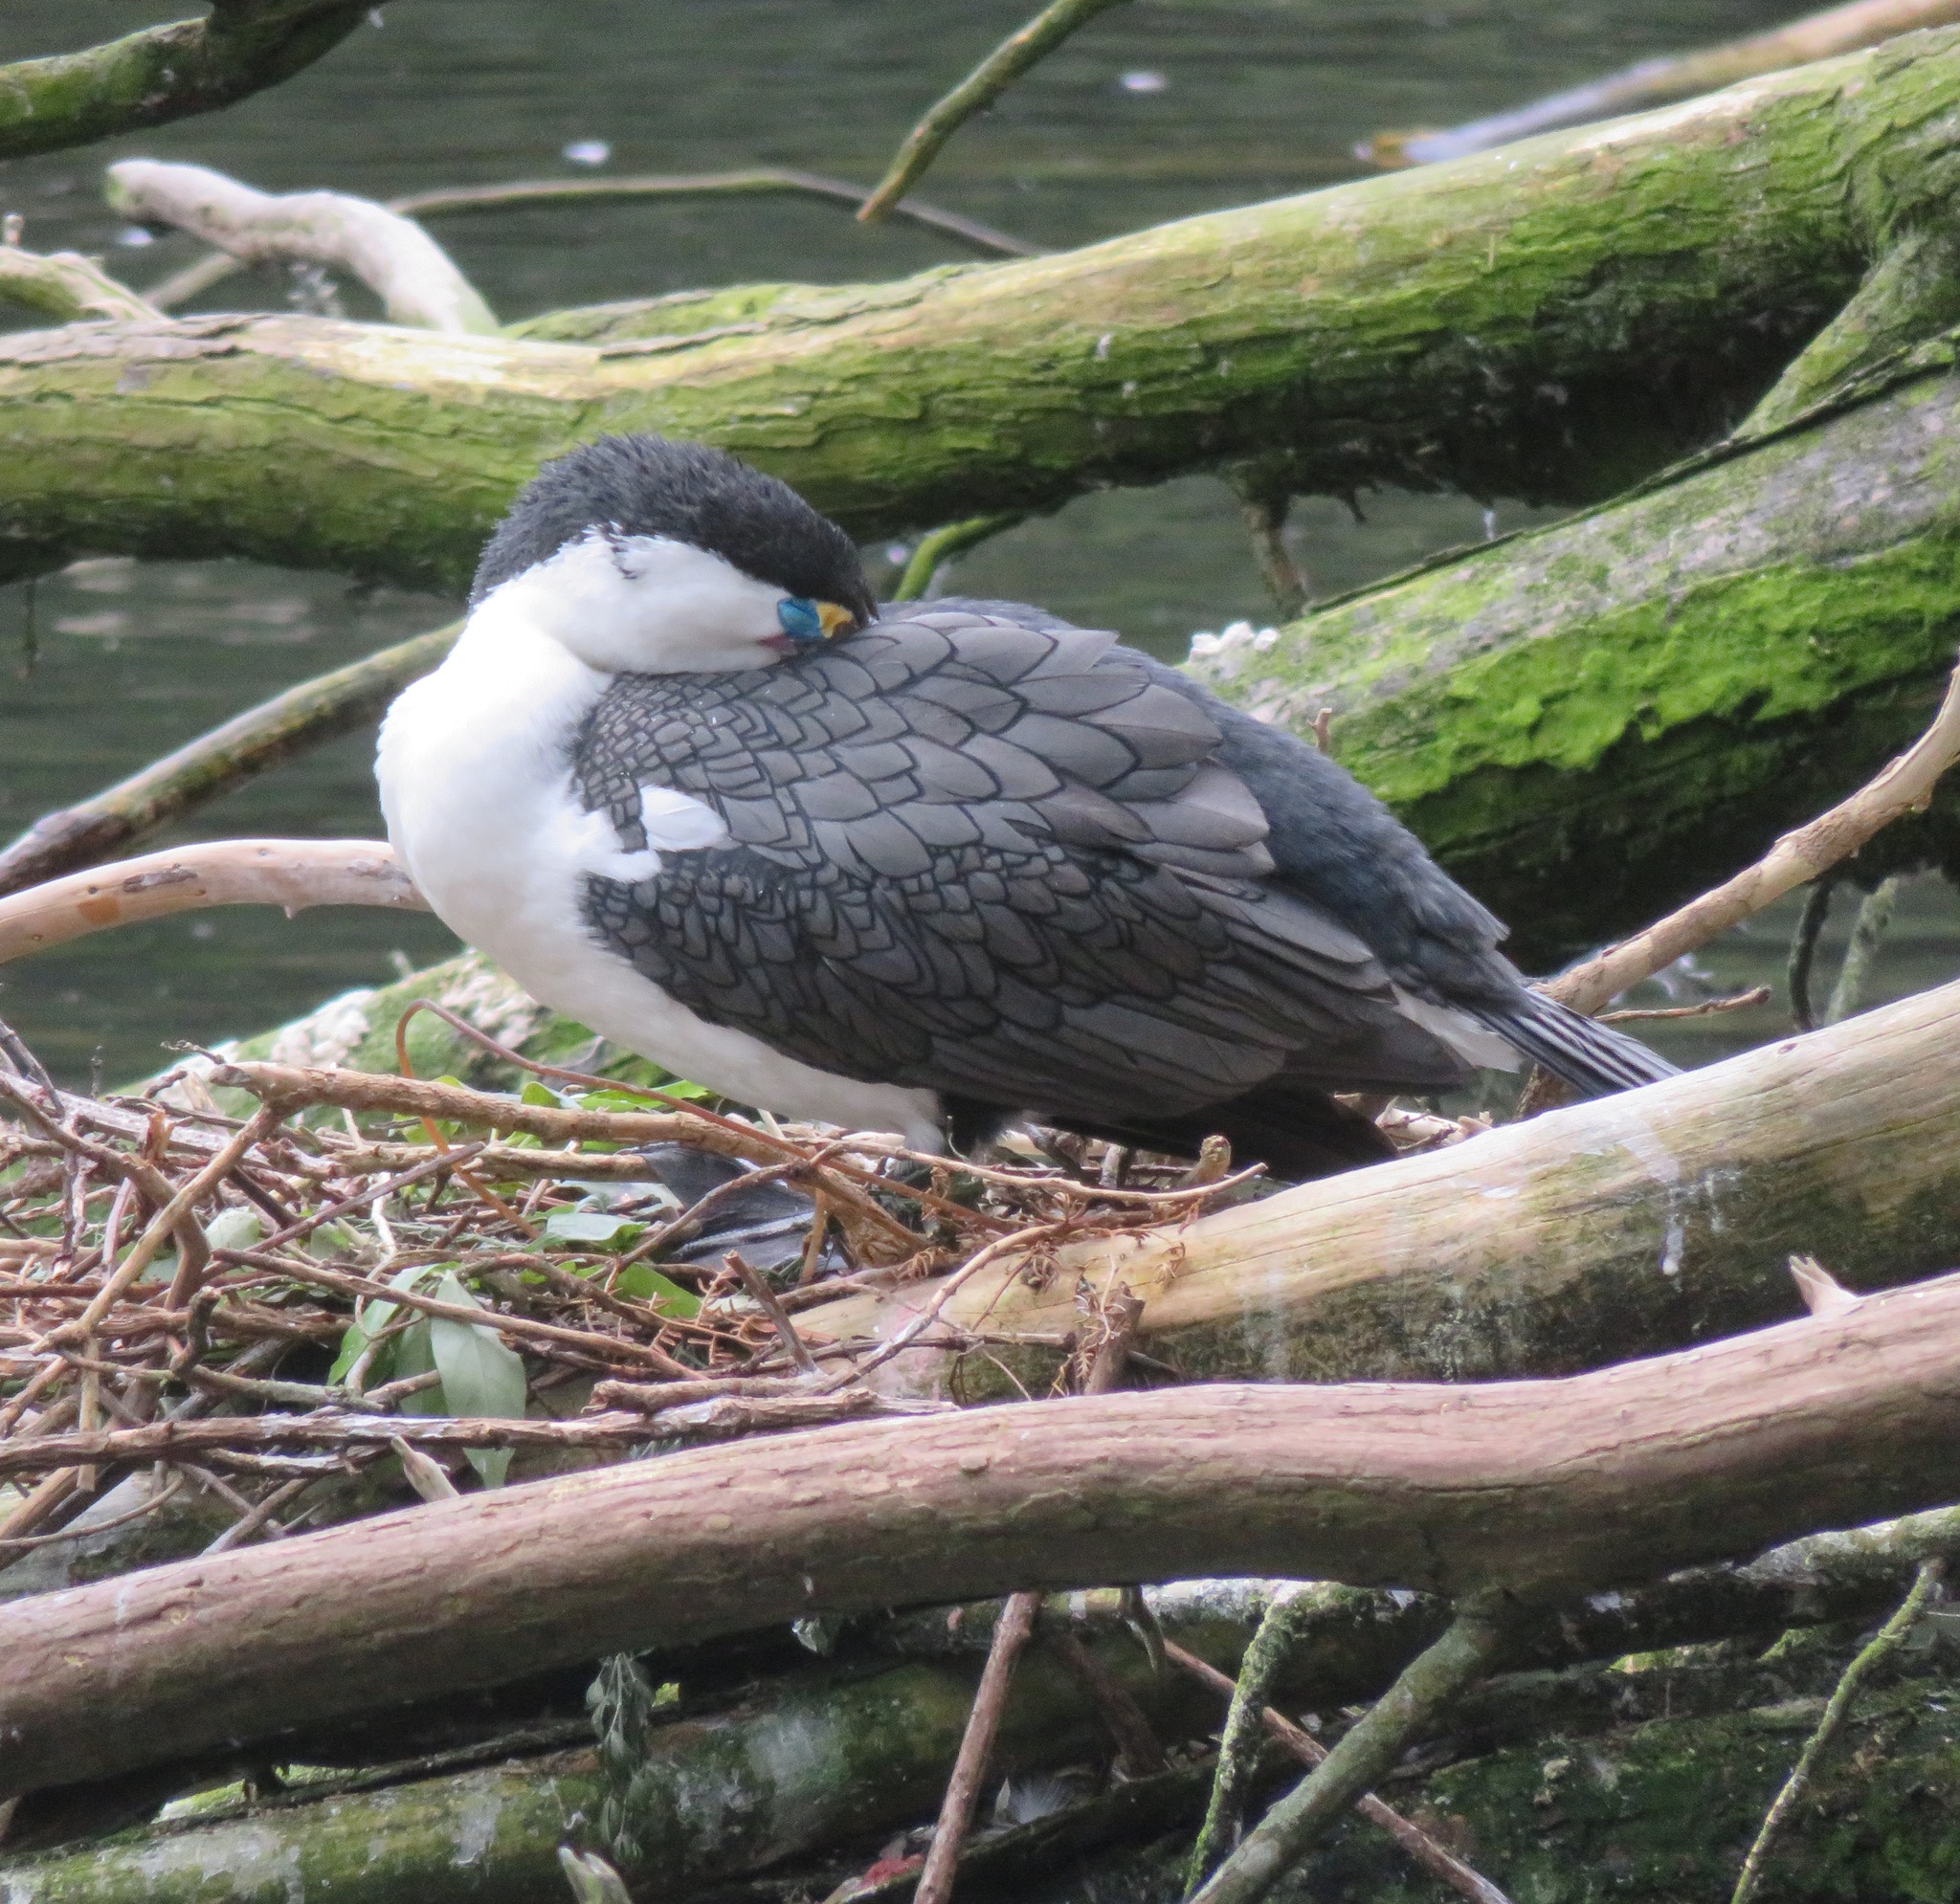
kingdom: Animalia
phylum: Chordata
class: Aves
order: Suliformes
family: Phalacrocoracidae
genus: Phalacrocorax
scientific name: Phalacrocorax varius
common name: Pied cormorant
